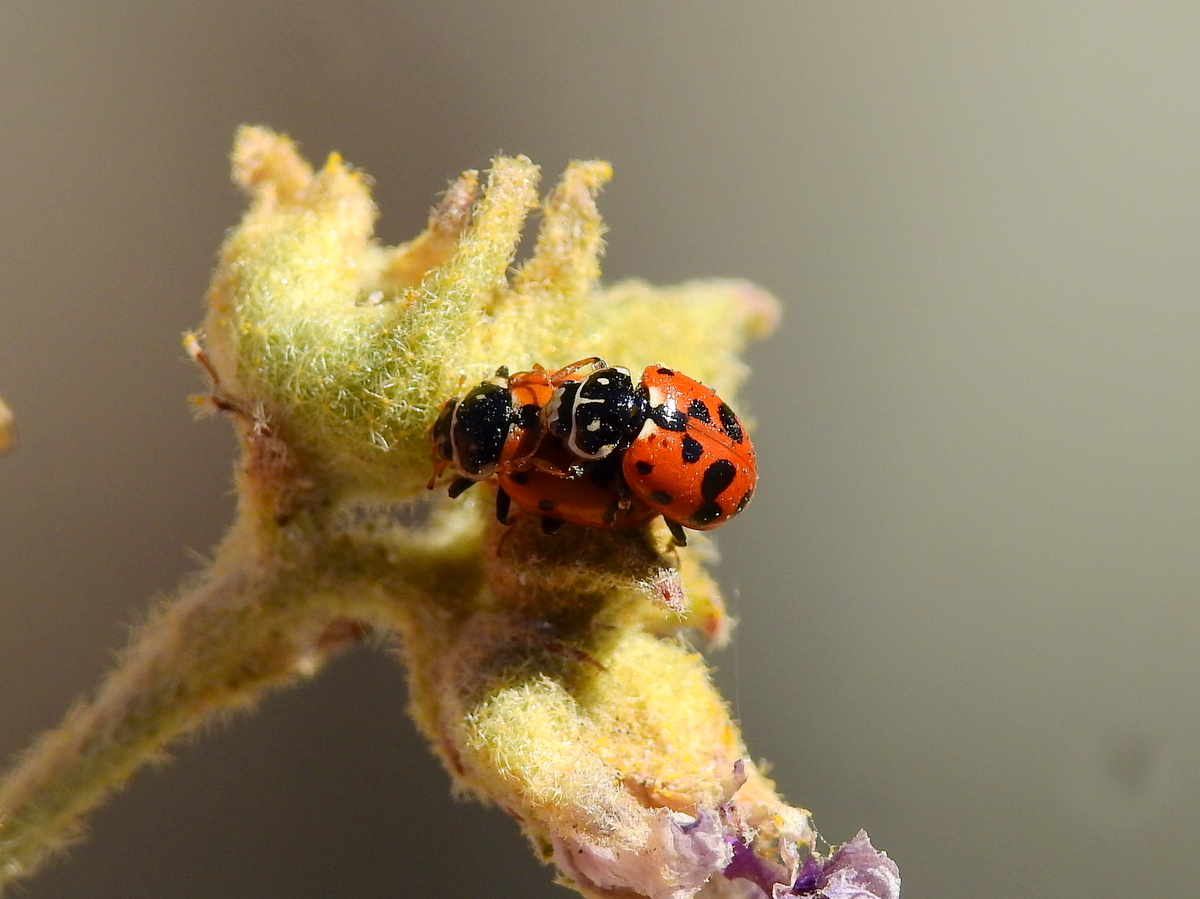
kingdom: Animalia
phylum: Arthropoda
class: Insecta
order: Coleoptera
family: Coccinellidae
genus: Hippodamia
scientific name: Hippodamia variegata
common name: Ladybird beetle
